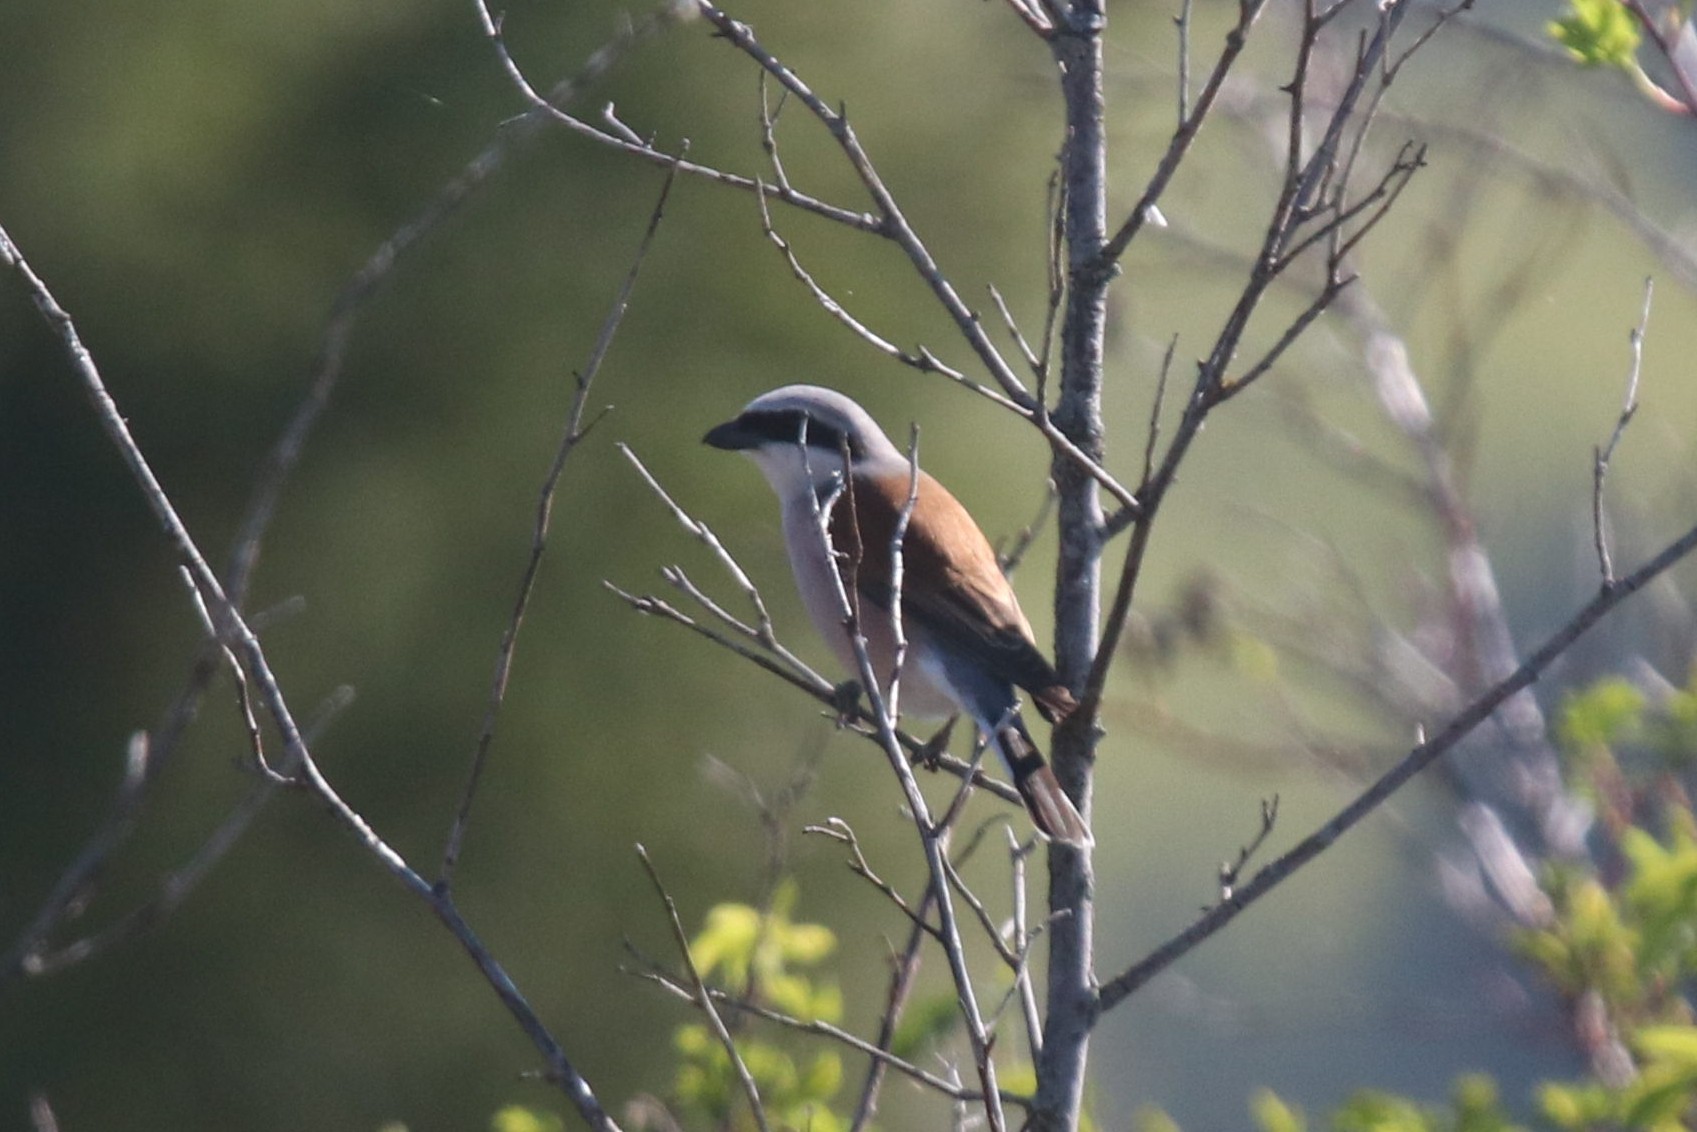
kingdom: Animalia
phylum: Chordata
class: Aves
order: Passeriformes
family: Laniidae
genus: Lanius
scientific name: Lanius collurio
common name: Red-backed shrike
